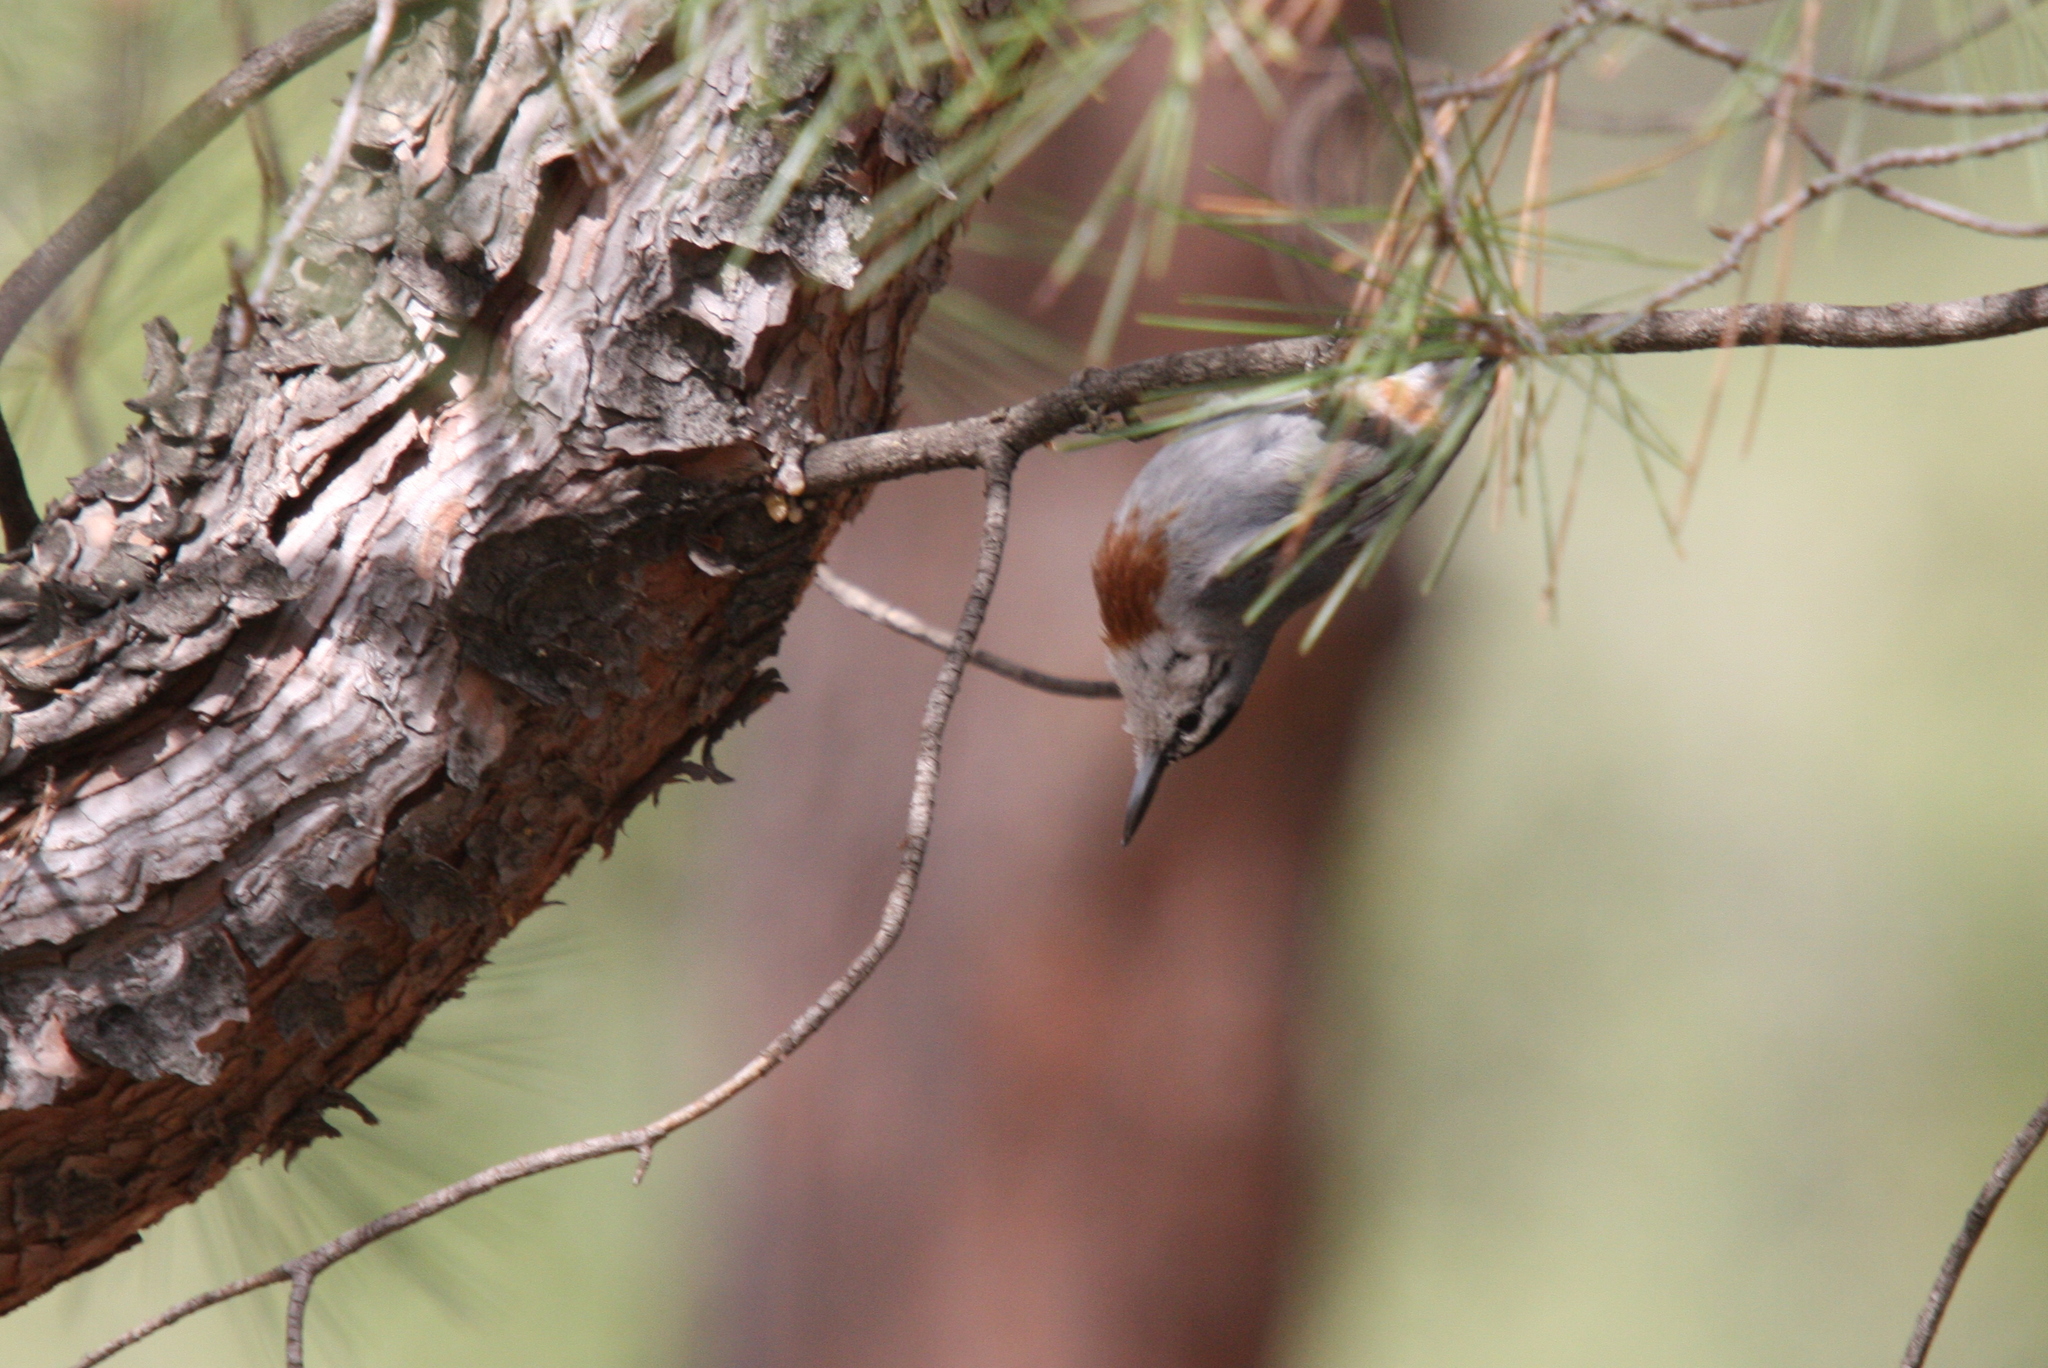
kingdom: Animalia
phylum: Chordata
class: Aves
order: Passeriformes
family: Sittidae
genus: Sitta
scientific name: Sitta krueperi
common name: Krüper's nuthatch
